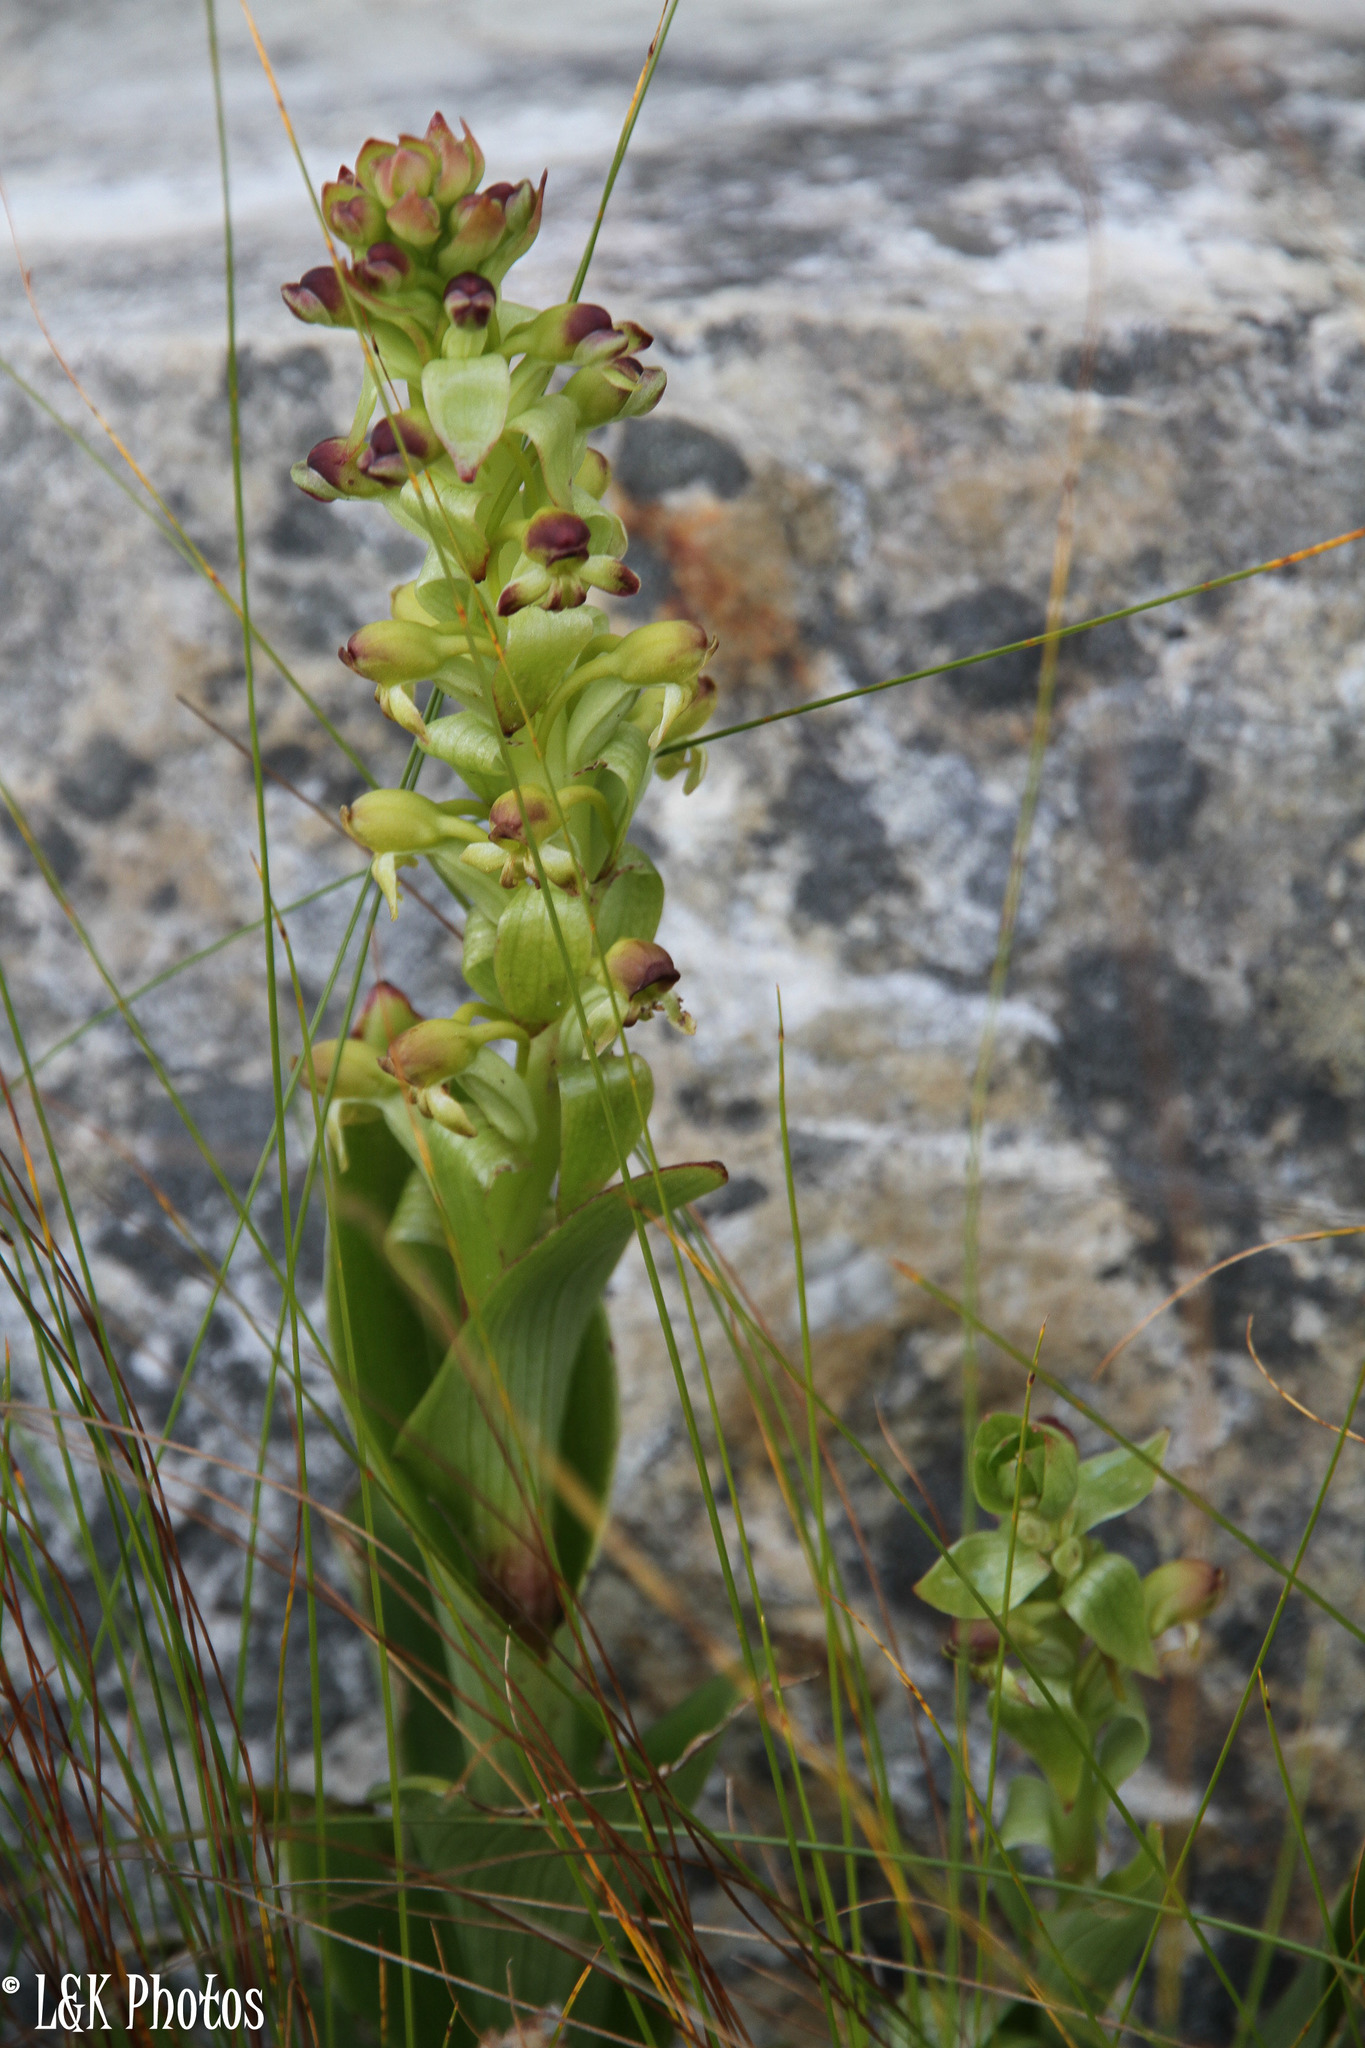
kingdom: Plantae
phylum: Tracheophyta
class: Liliopsida
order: Asparagales
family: Orchidaceae
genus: Satyrium
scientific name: Satyrium odorum
